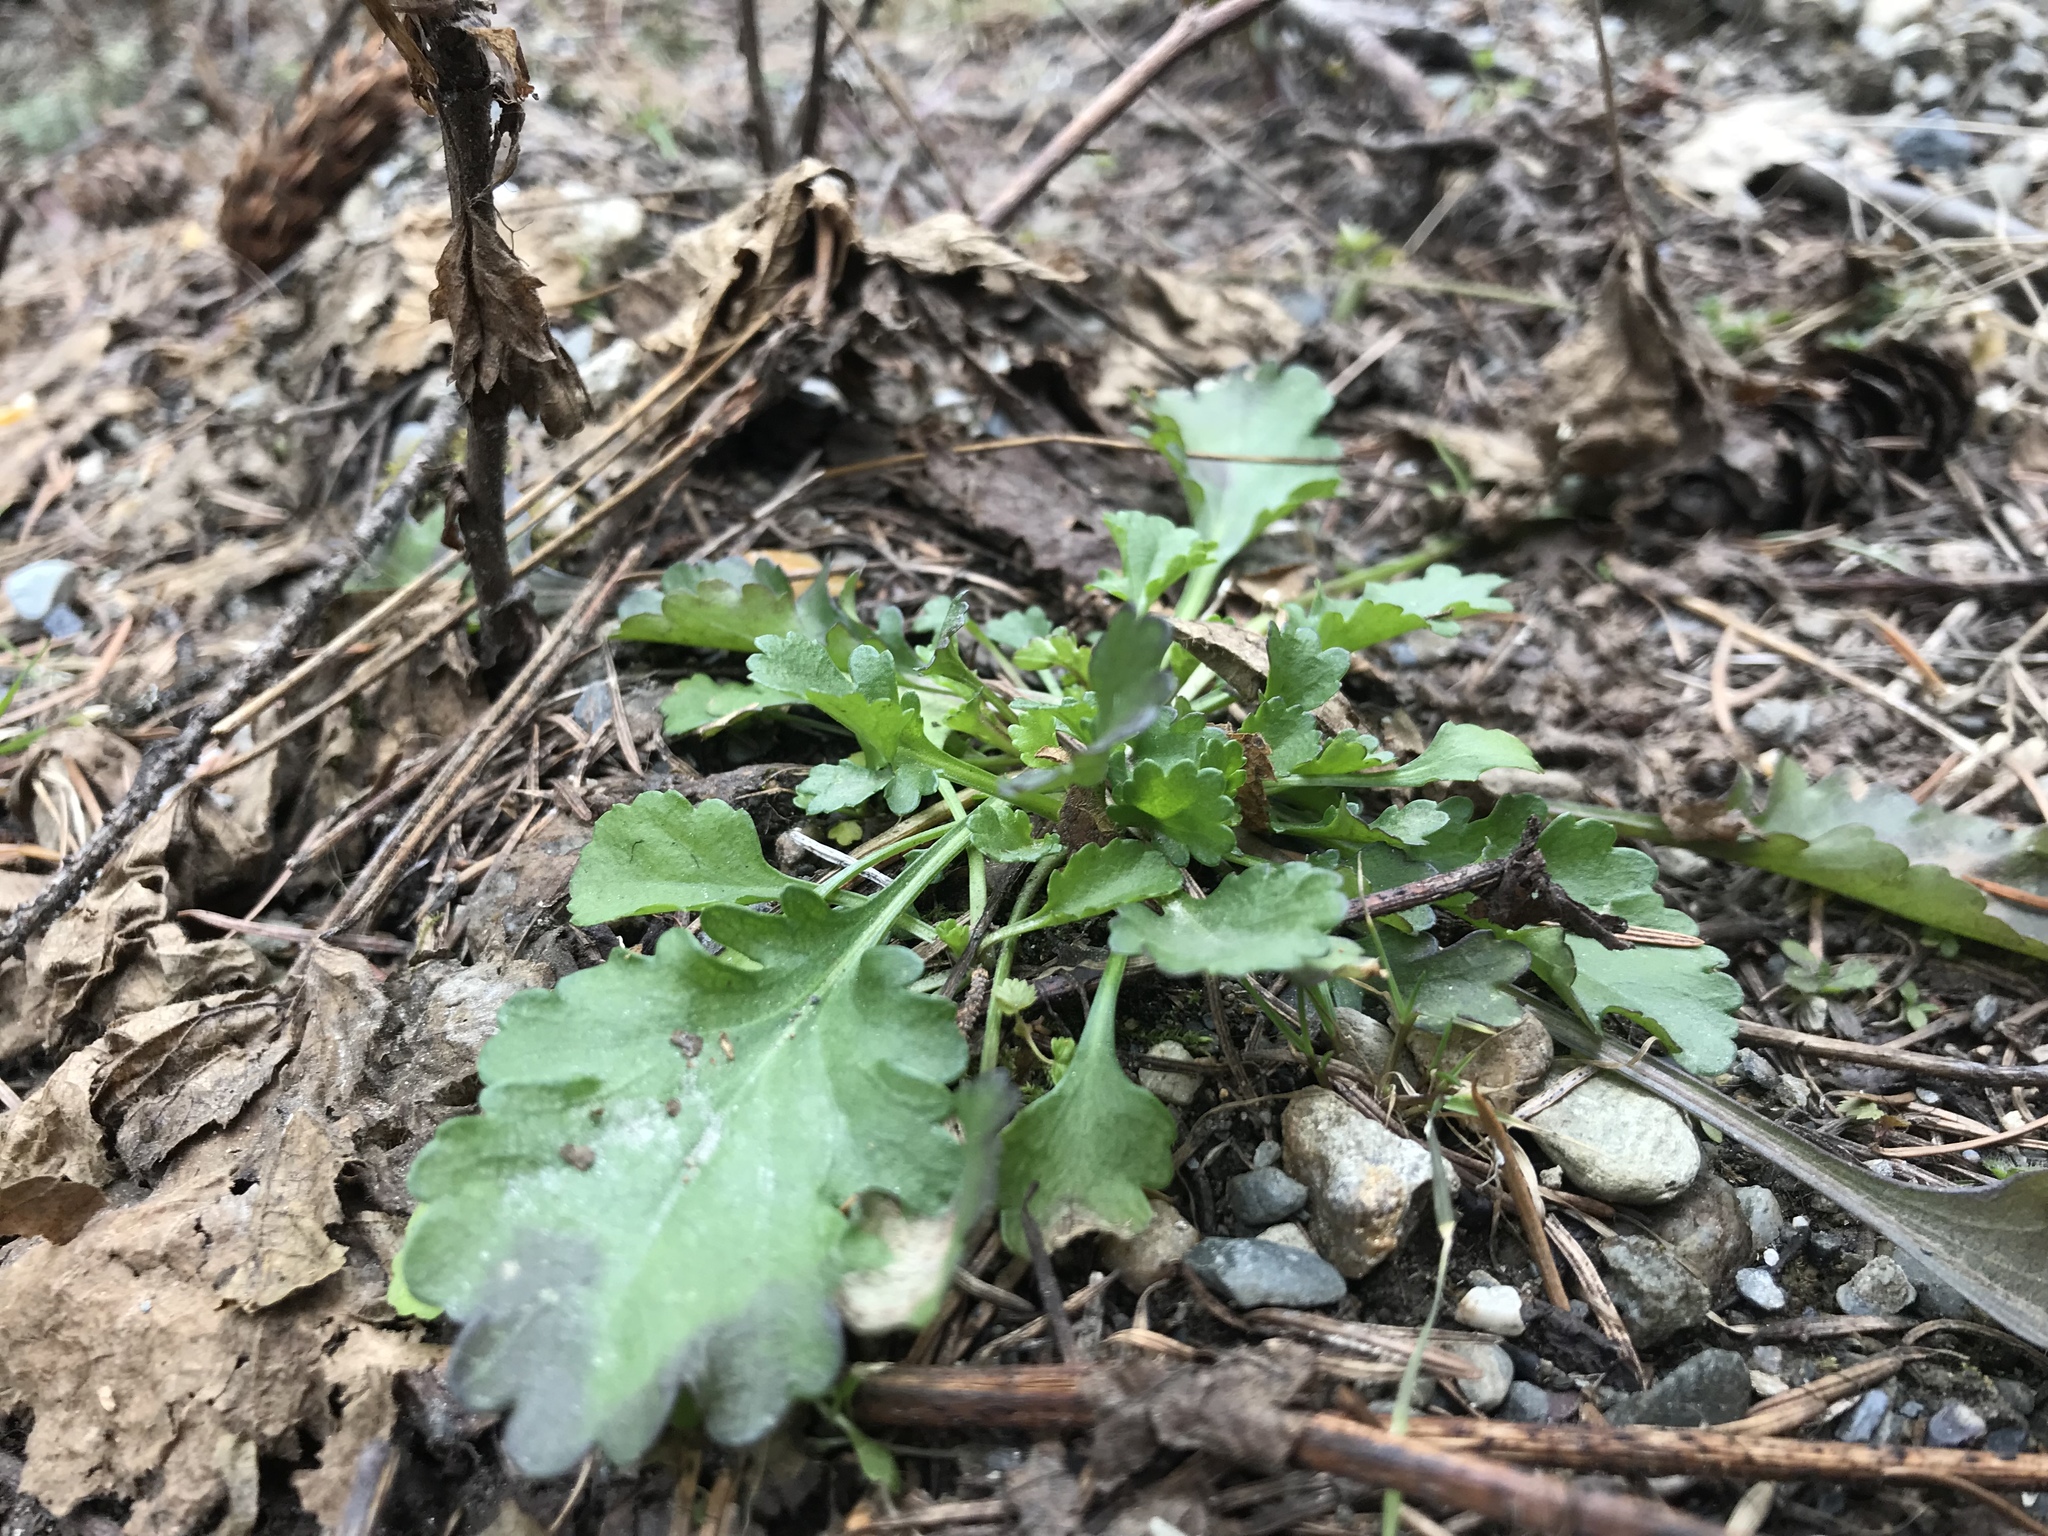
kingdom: Plantae
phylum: Tracheophyta
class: Magnoliopsida
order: Asterales
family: Asteraceae
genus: Leucanthemum
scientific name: Leucanthemum vulgare
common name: Oxeye daisy
